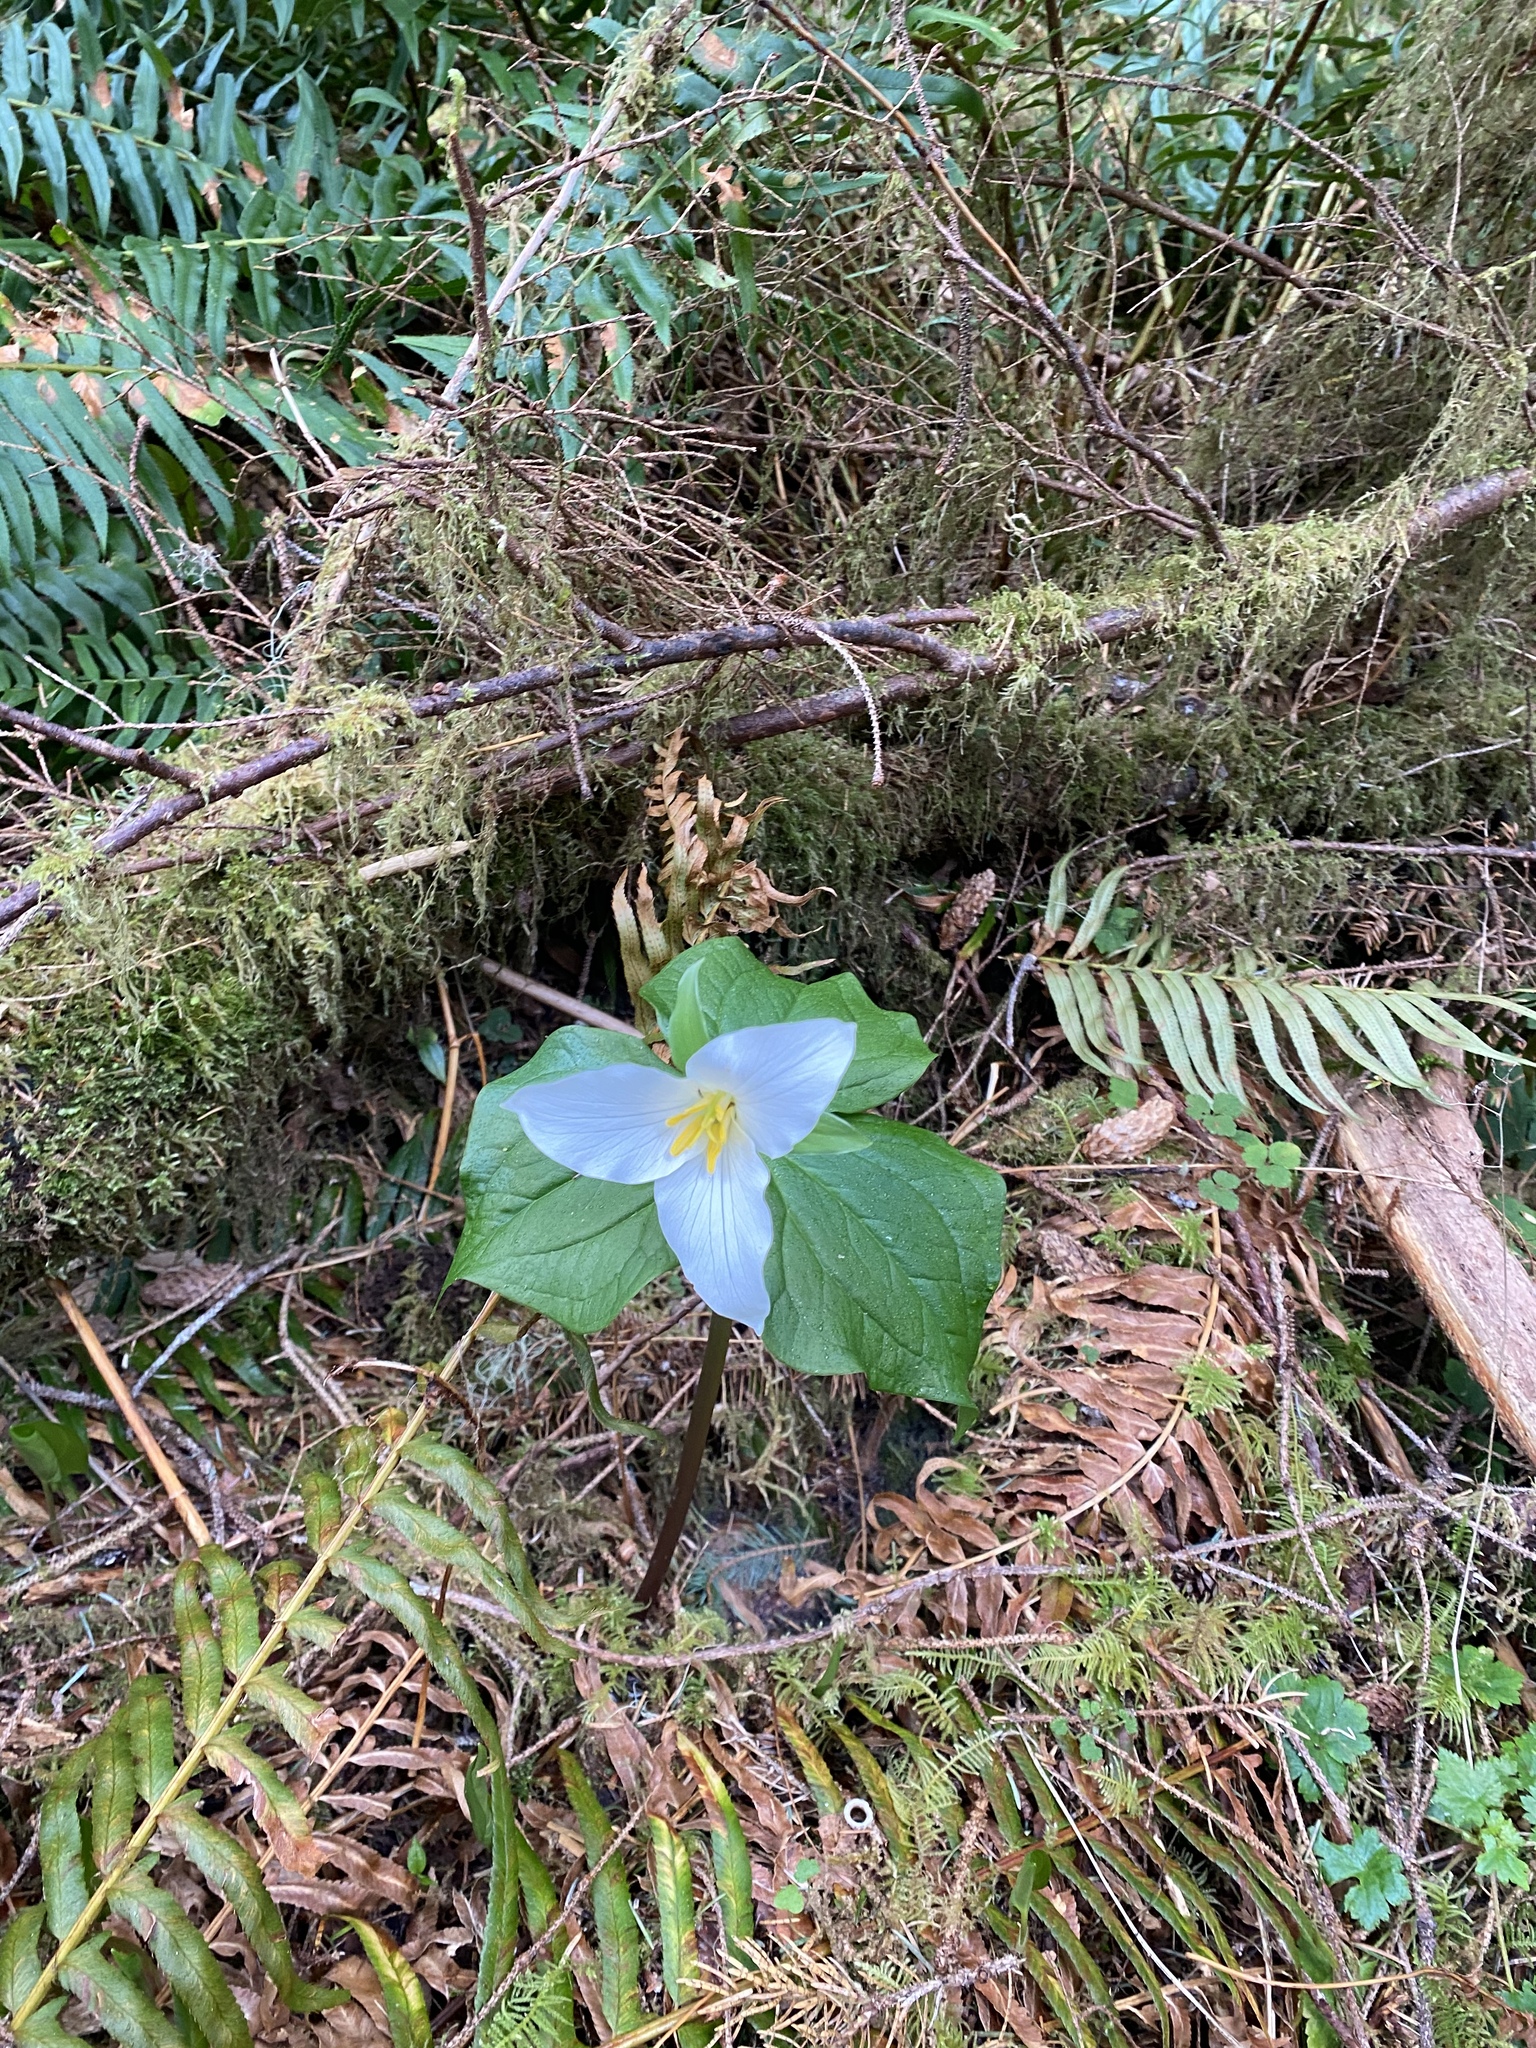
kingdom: Plantae
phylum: Tracheophyta
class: Liliopsida
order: Liliales
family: Melanthiaceae
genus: Trillium
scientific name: Trillium ovatum
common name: Pacific trillium
